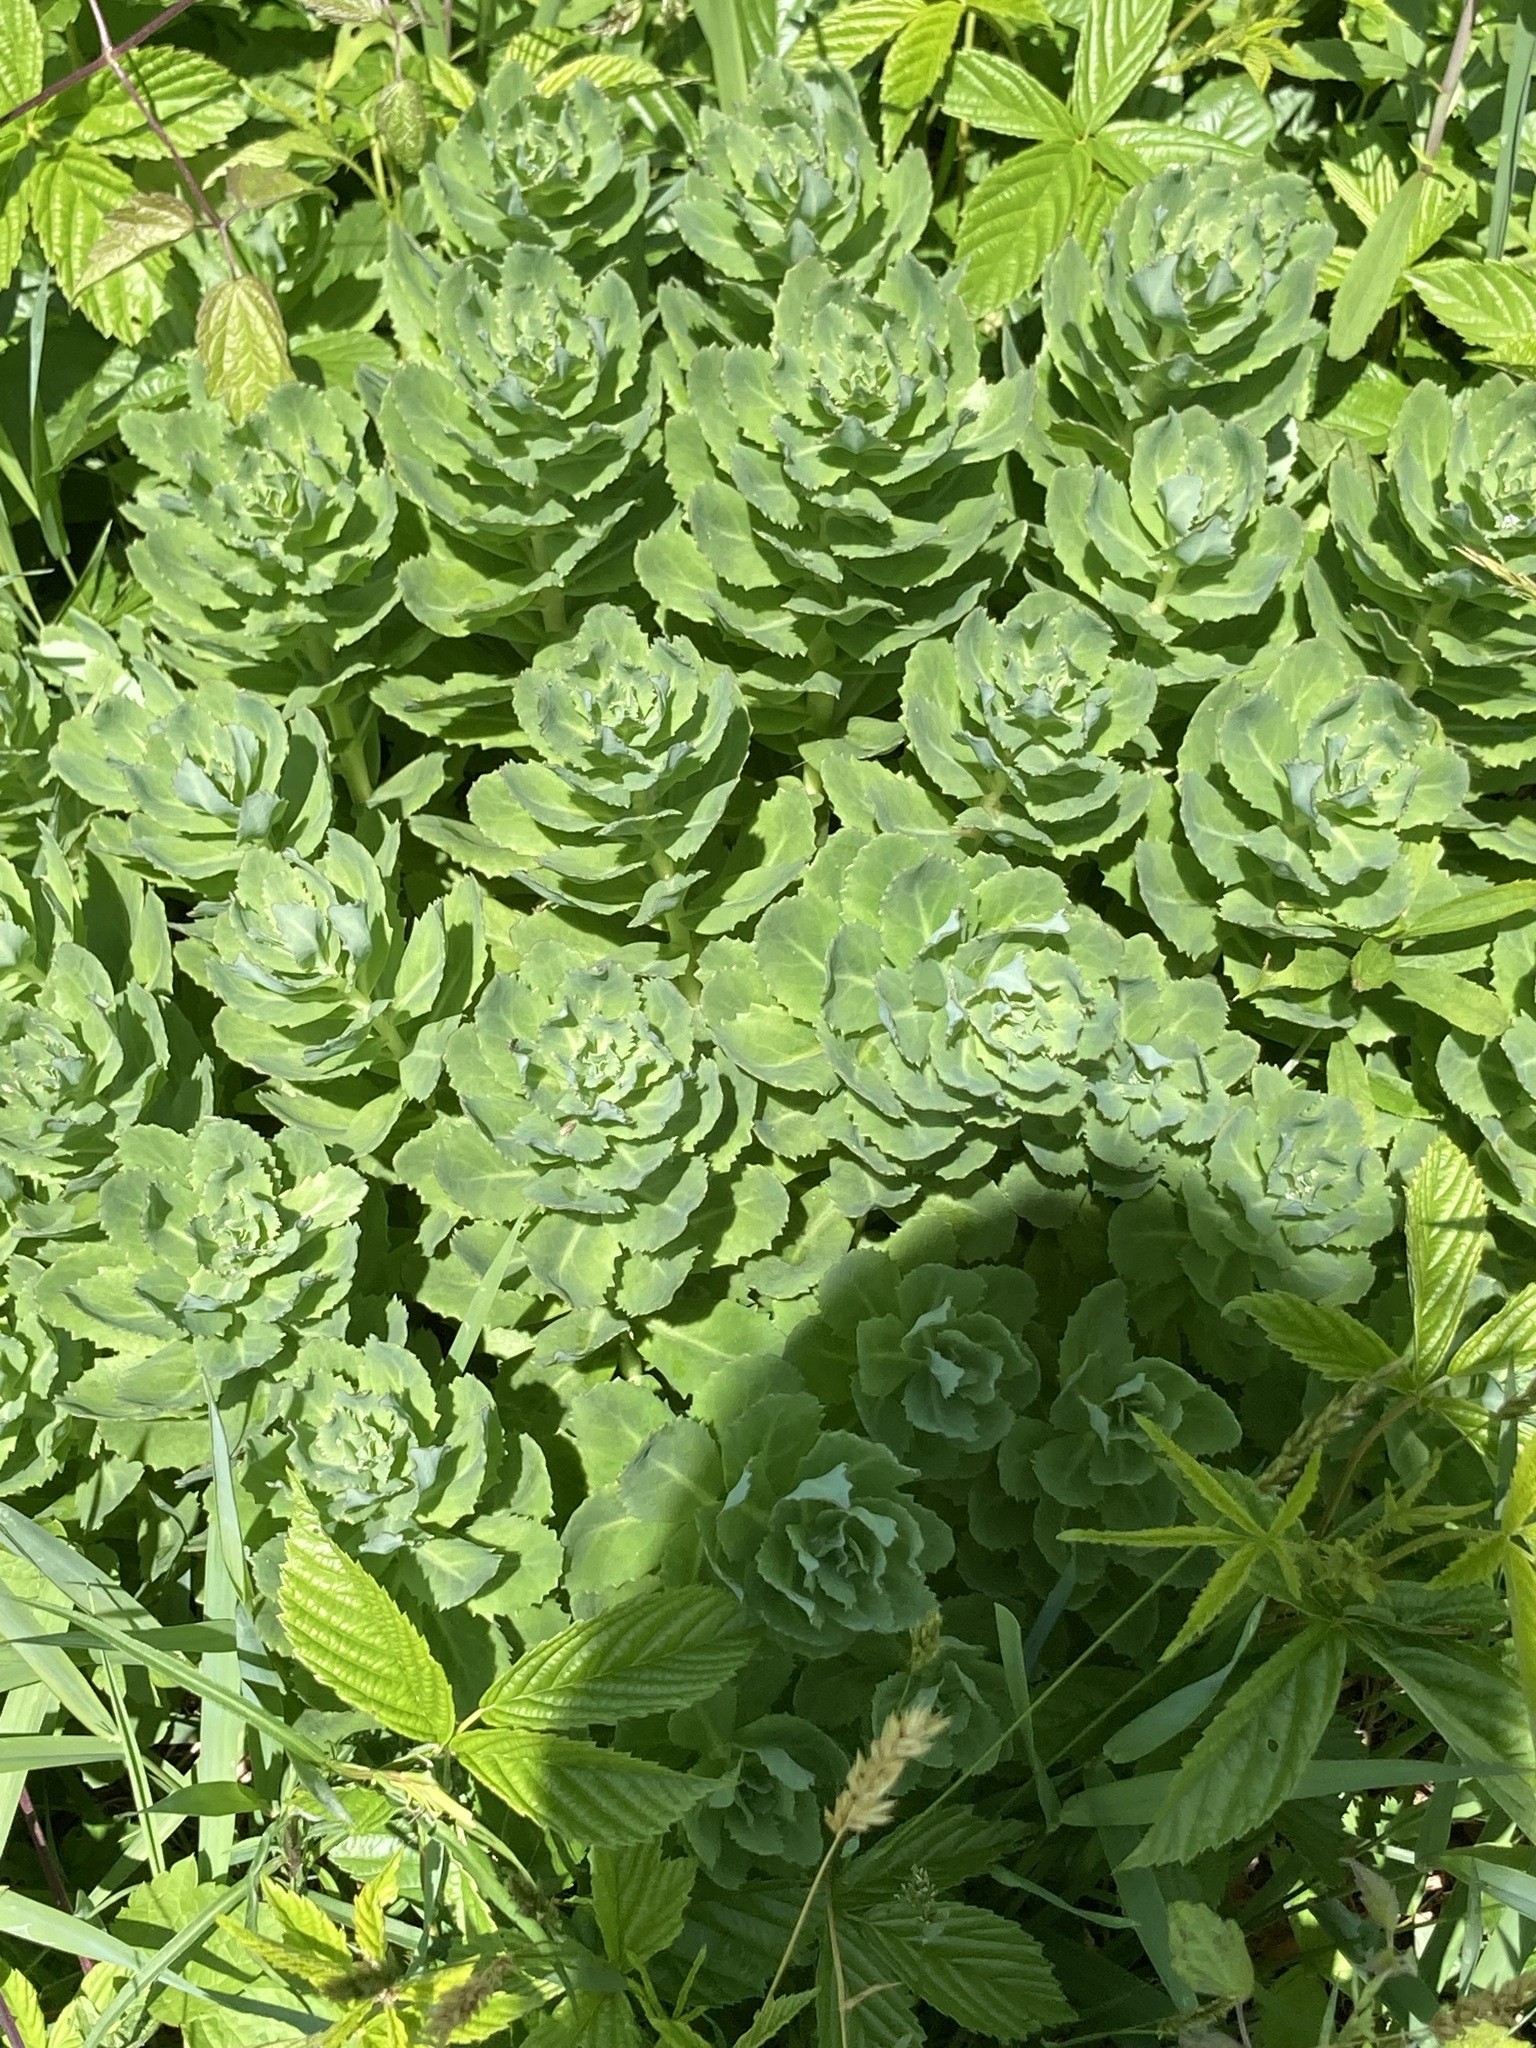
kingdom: Plantae
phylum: Tracheophyta
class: Magnoliopsida
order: Saxifragales
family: Crassulaceae
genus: Hylotelephium
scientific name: Hylotelephium telephium
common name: Live-forever
